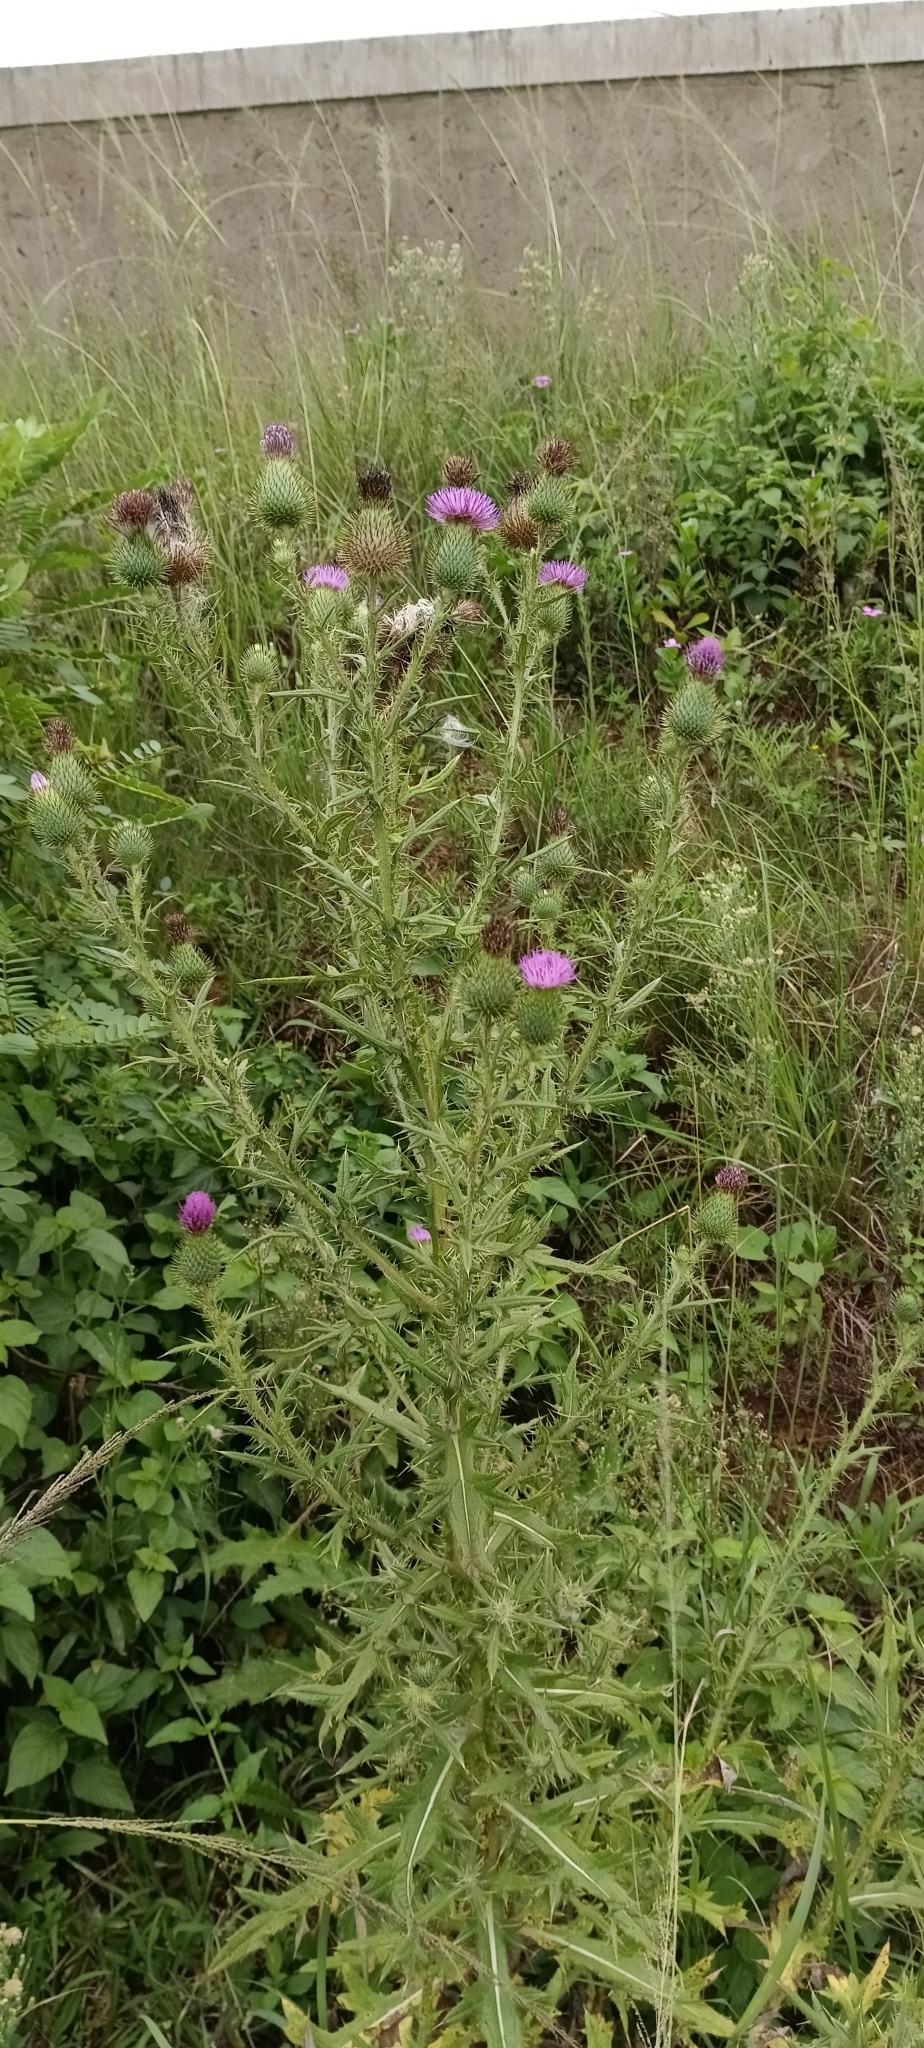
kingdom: Plantae
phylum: Tracheophyta
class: Magnoliopsida
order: Asterales
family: Asteraceae
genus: Cirsium
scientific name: Cirsium vulgare
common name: Bull thistle
